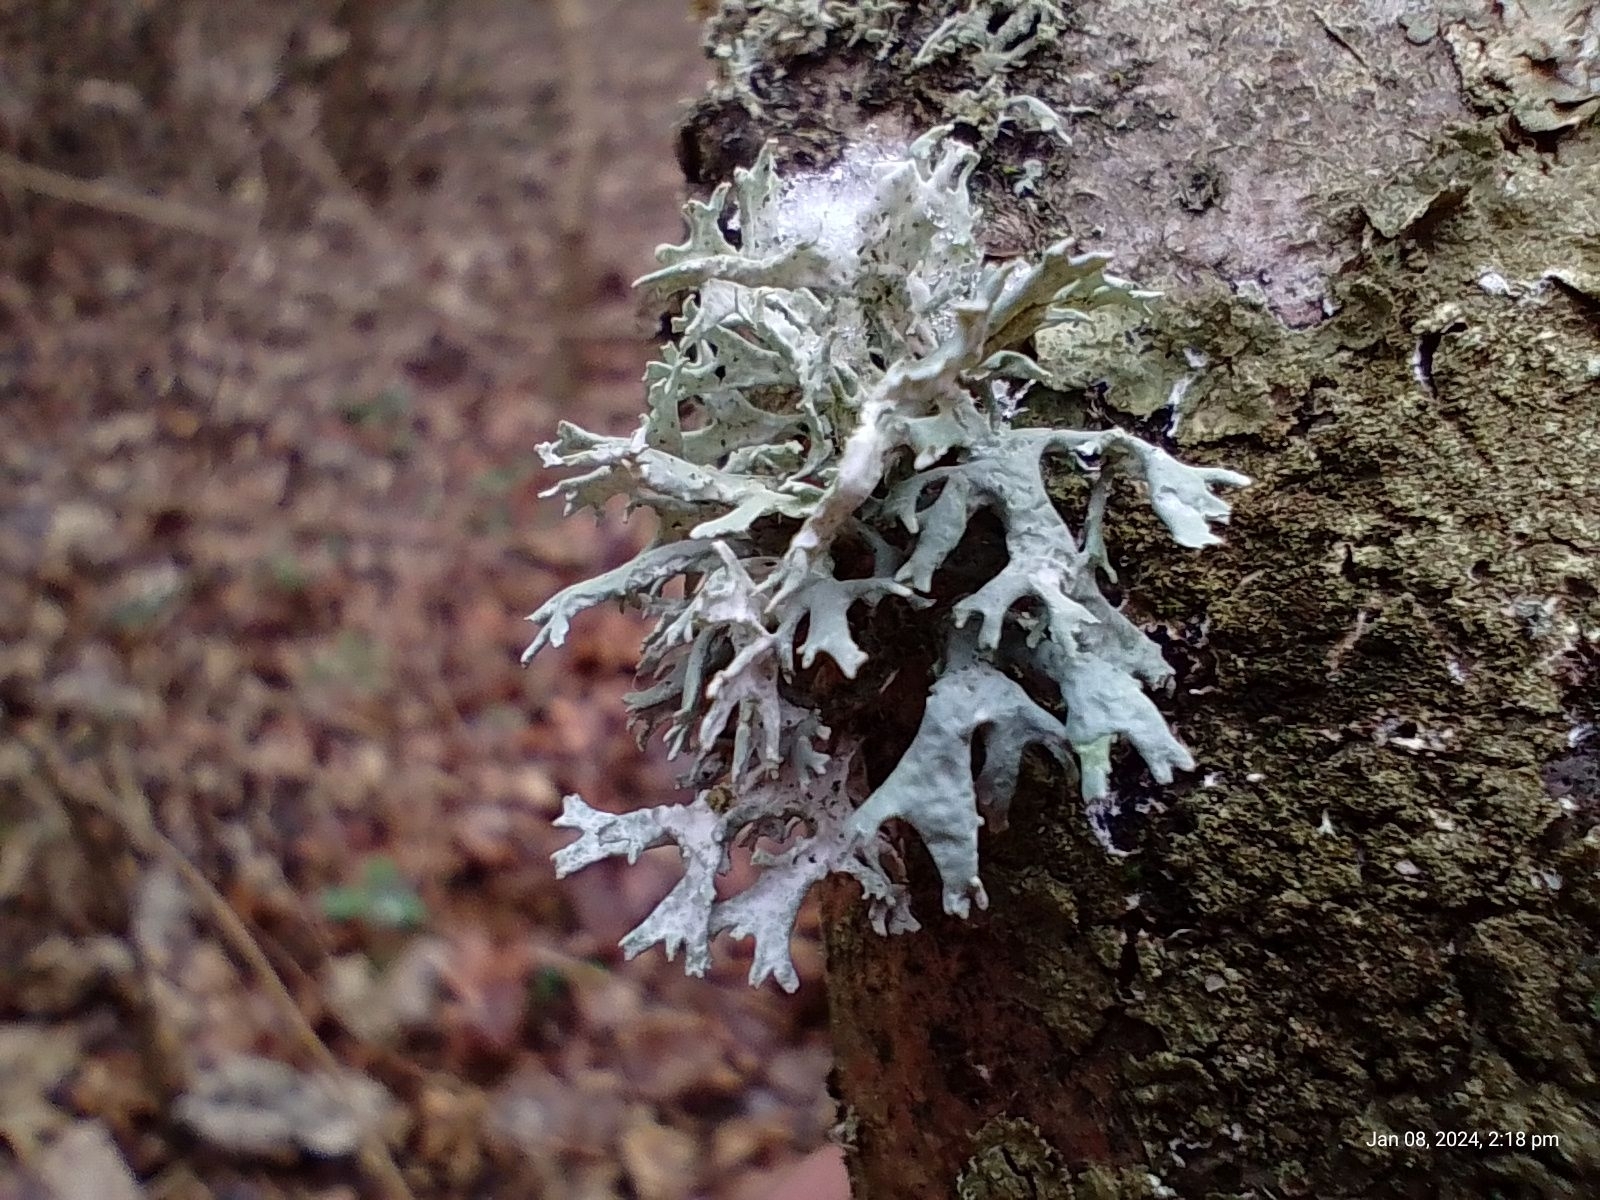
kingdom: Fungi
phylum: Ascomycota
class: Lecanoromycetes
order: Lecanorales
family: Parmeliaceae
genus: Evernia
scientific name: Evernia prunastri
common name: Oak moss
